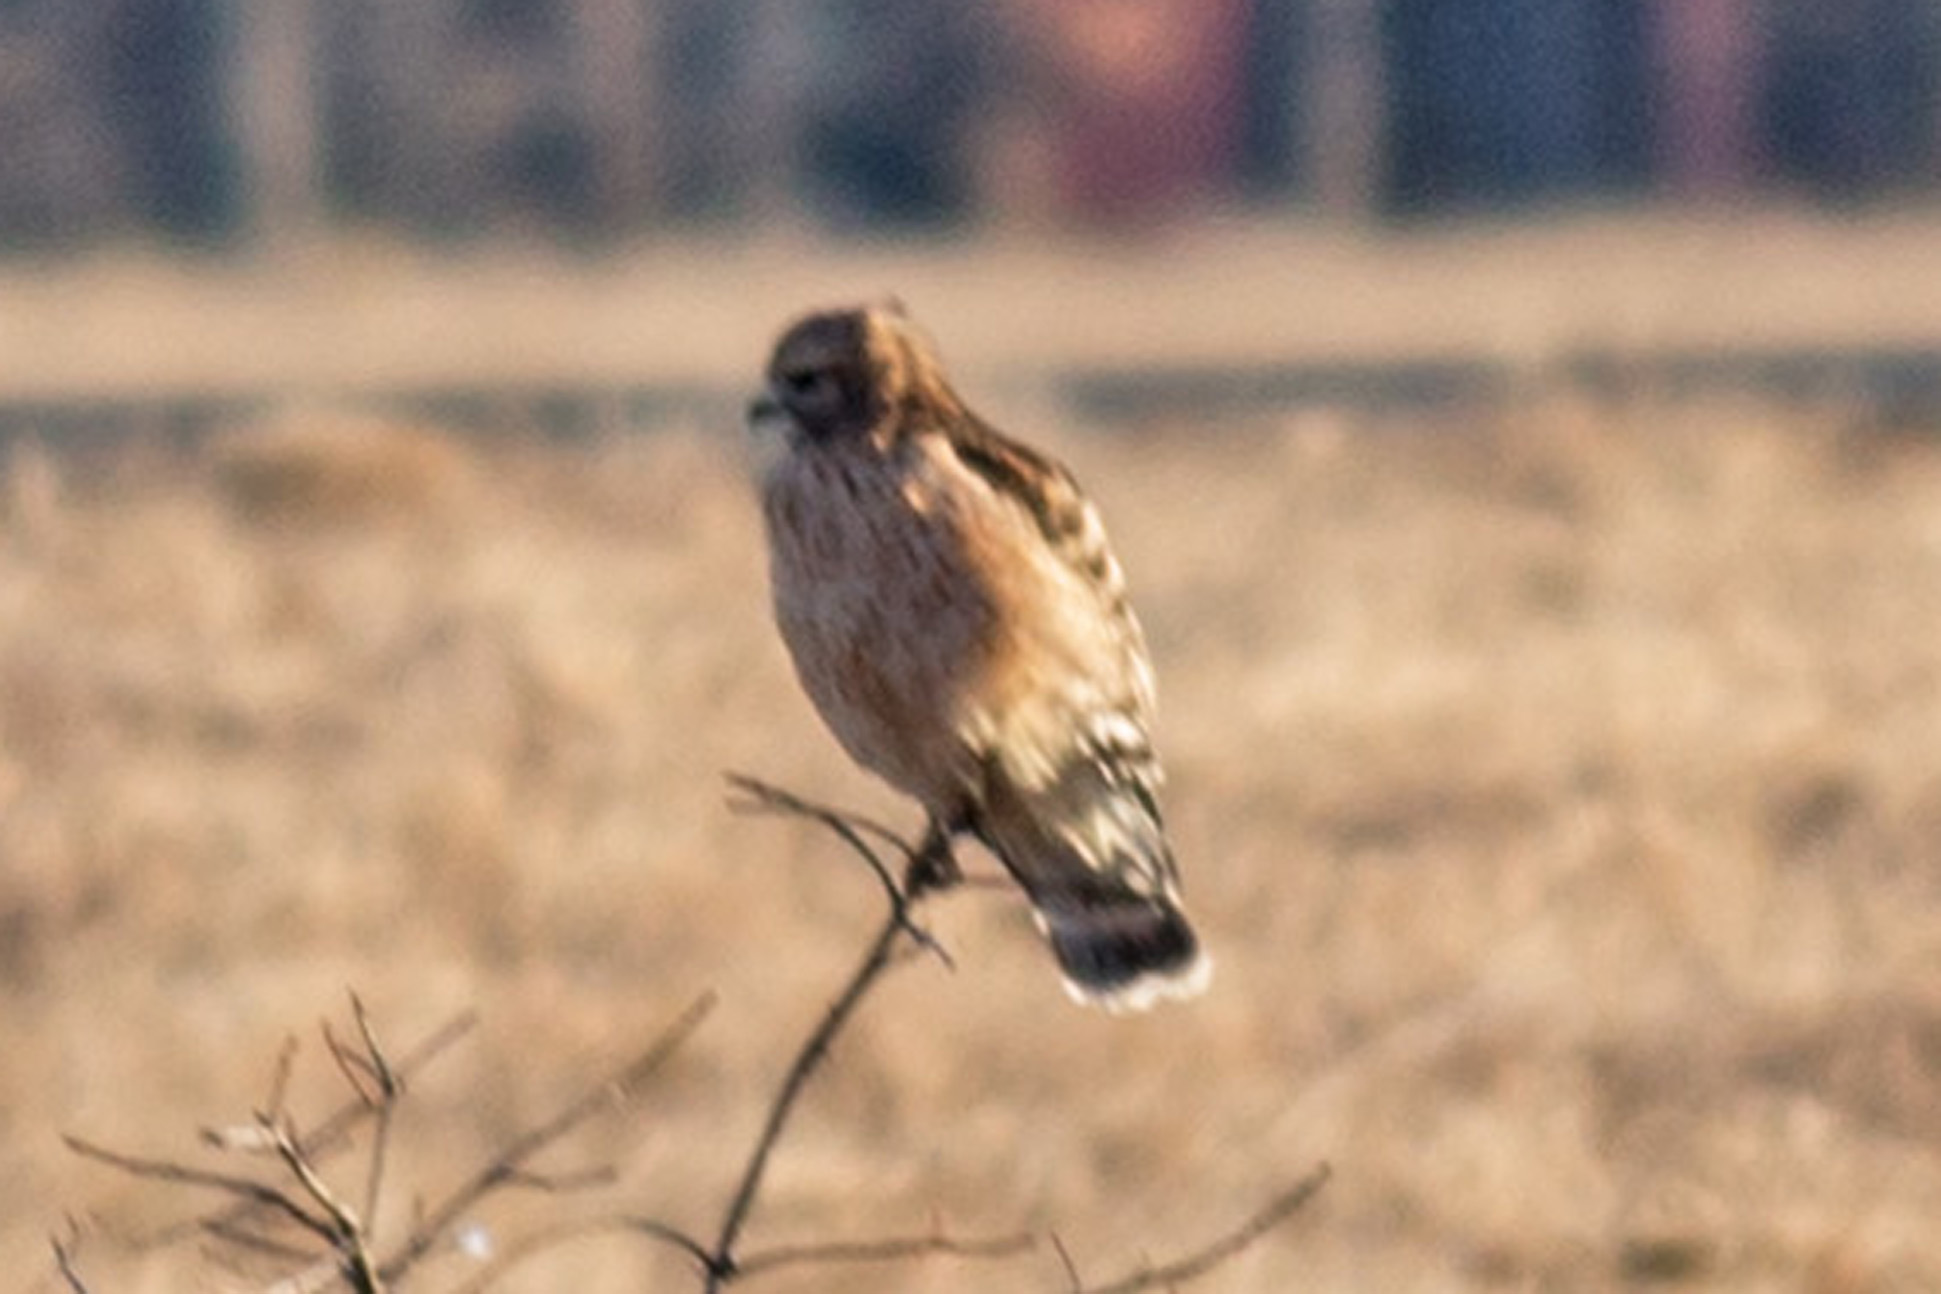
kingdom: Animalia
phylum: Chordata
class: Aves
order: Accipitriformes
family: Accipitridae
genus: Buteo
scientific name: Buteo lineatus
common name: Red-shouldered hawk
